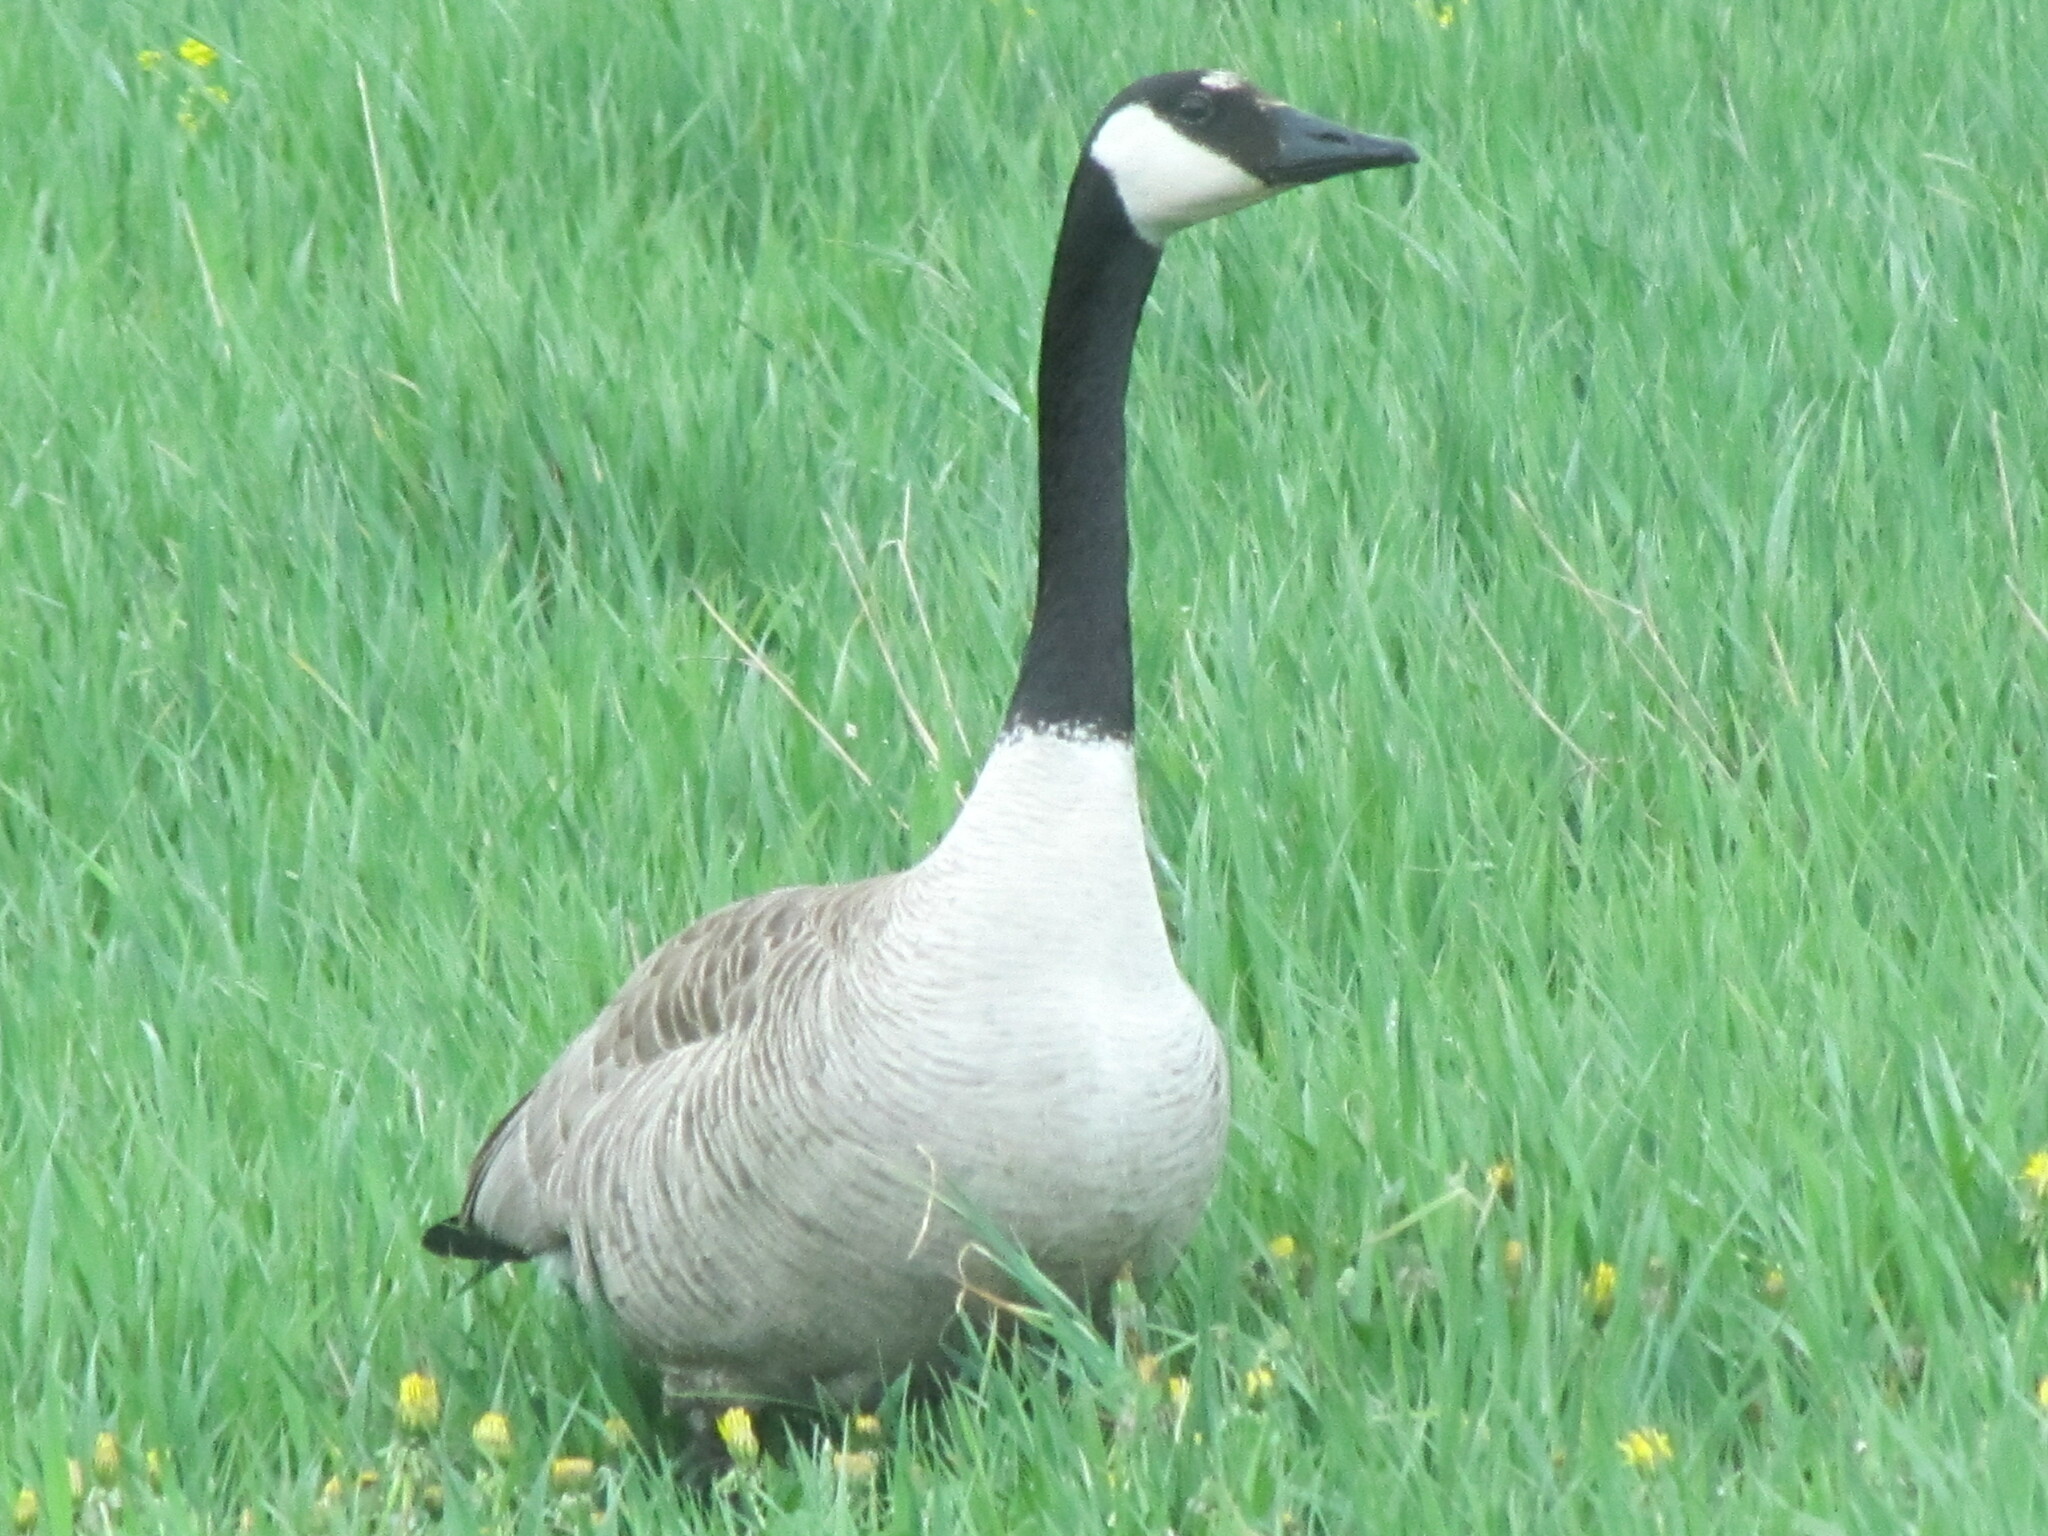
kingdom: Animalia
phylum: Chordata
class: Aves
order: Anseriformes
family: Anatidae
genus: Branta
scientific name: Branta canadensis
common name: Canada goose
